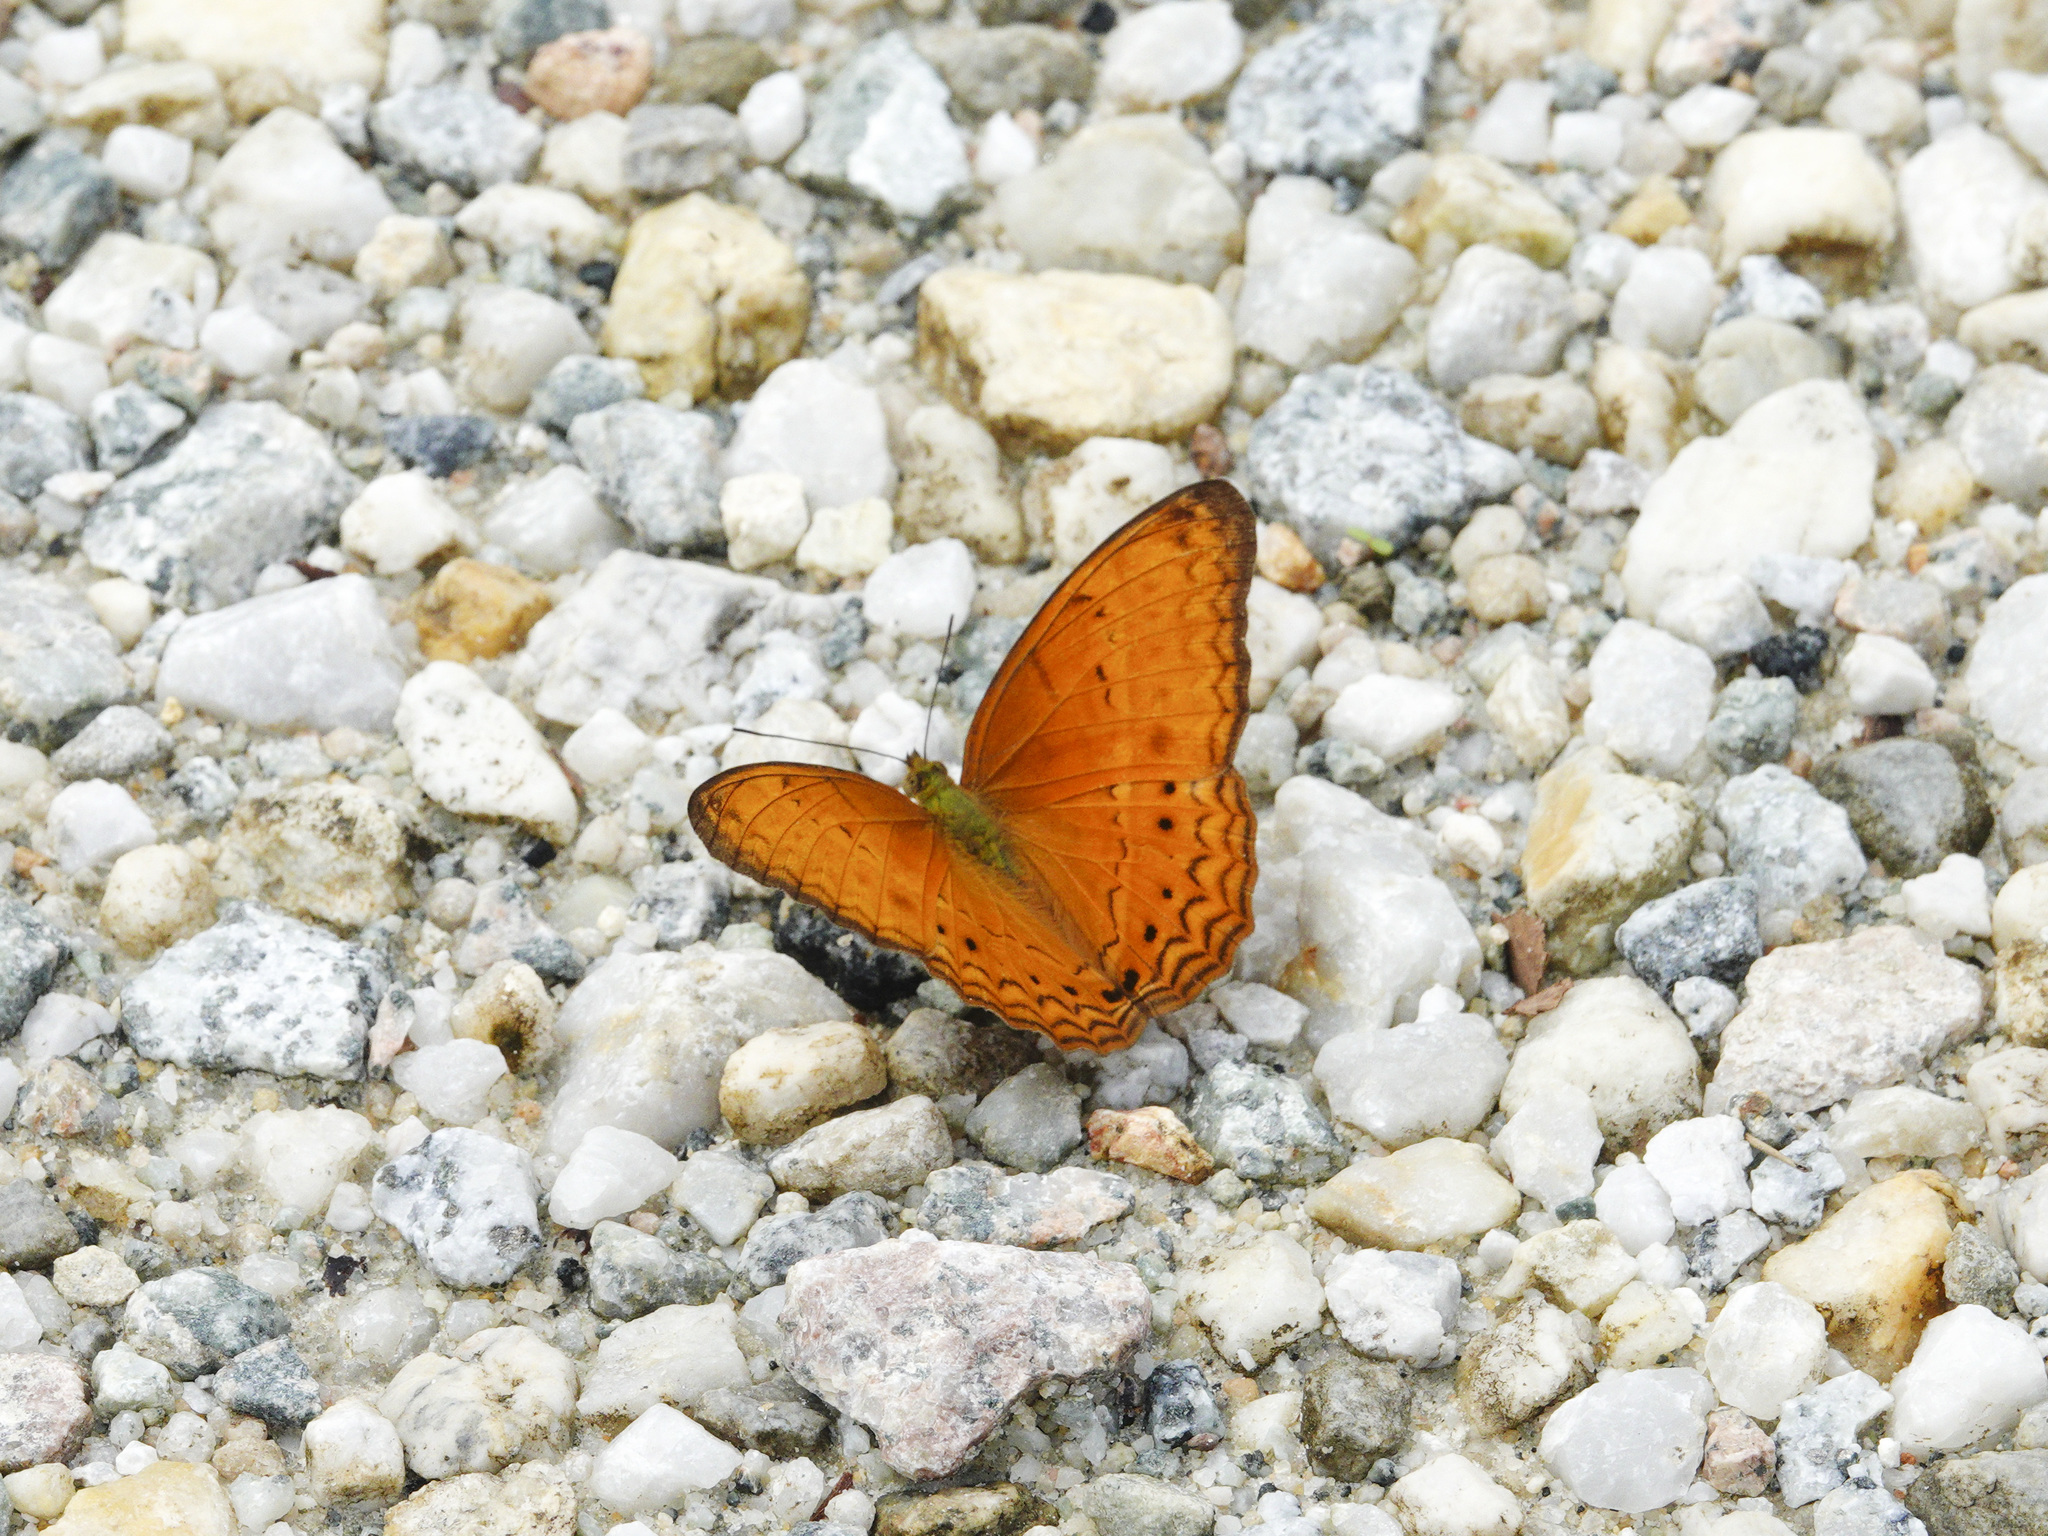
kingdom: Animalia
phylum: Arthropoda
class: Insecta
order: Lepidoptera
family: Nymphalidae
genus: Cirrochroa
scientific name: Cirrochroa tyche
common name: Common yeoman
